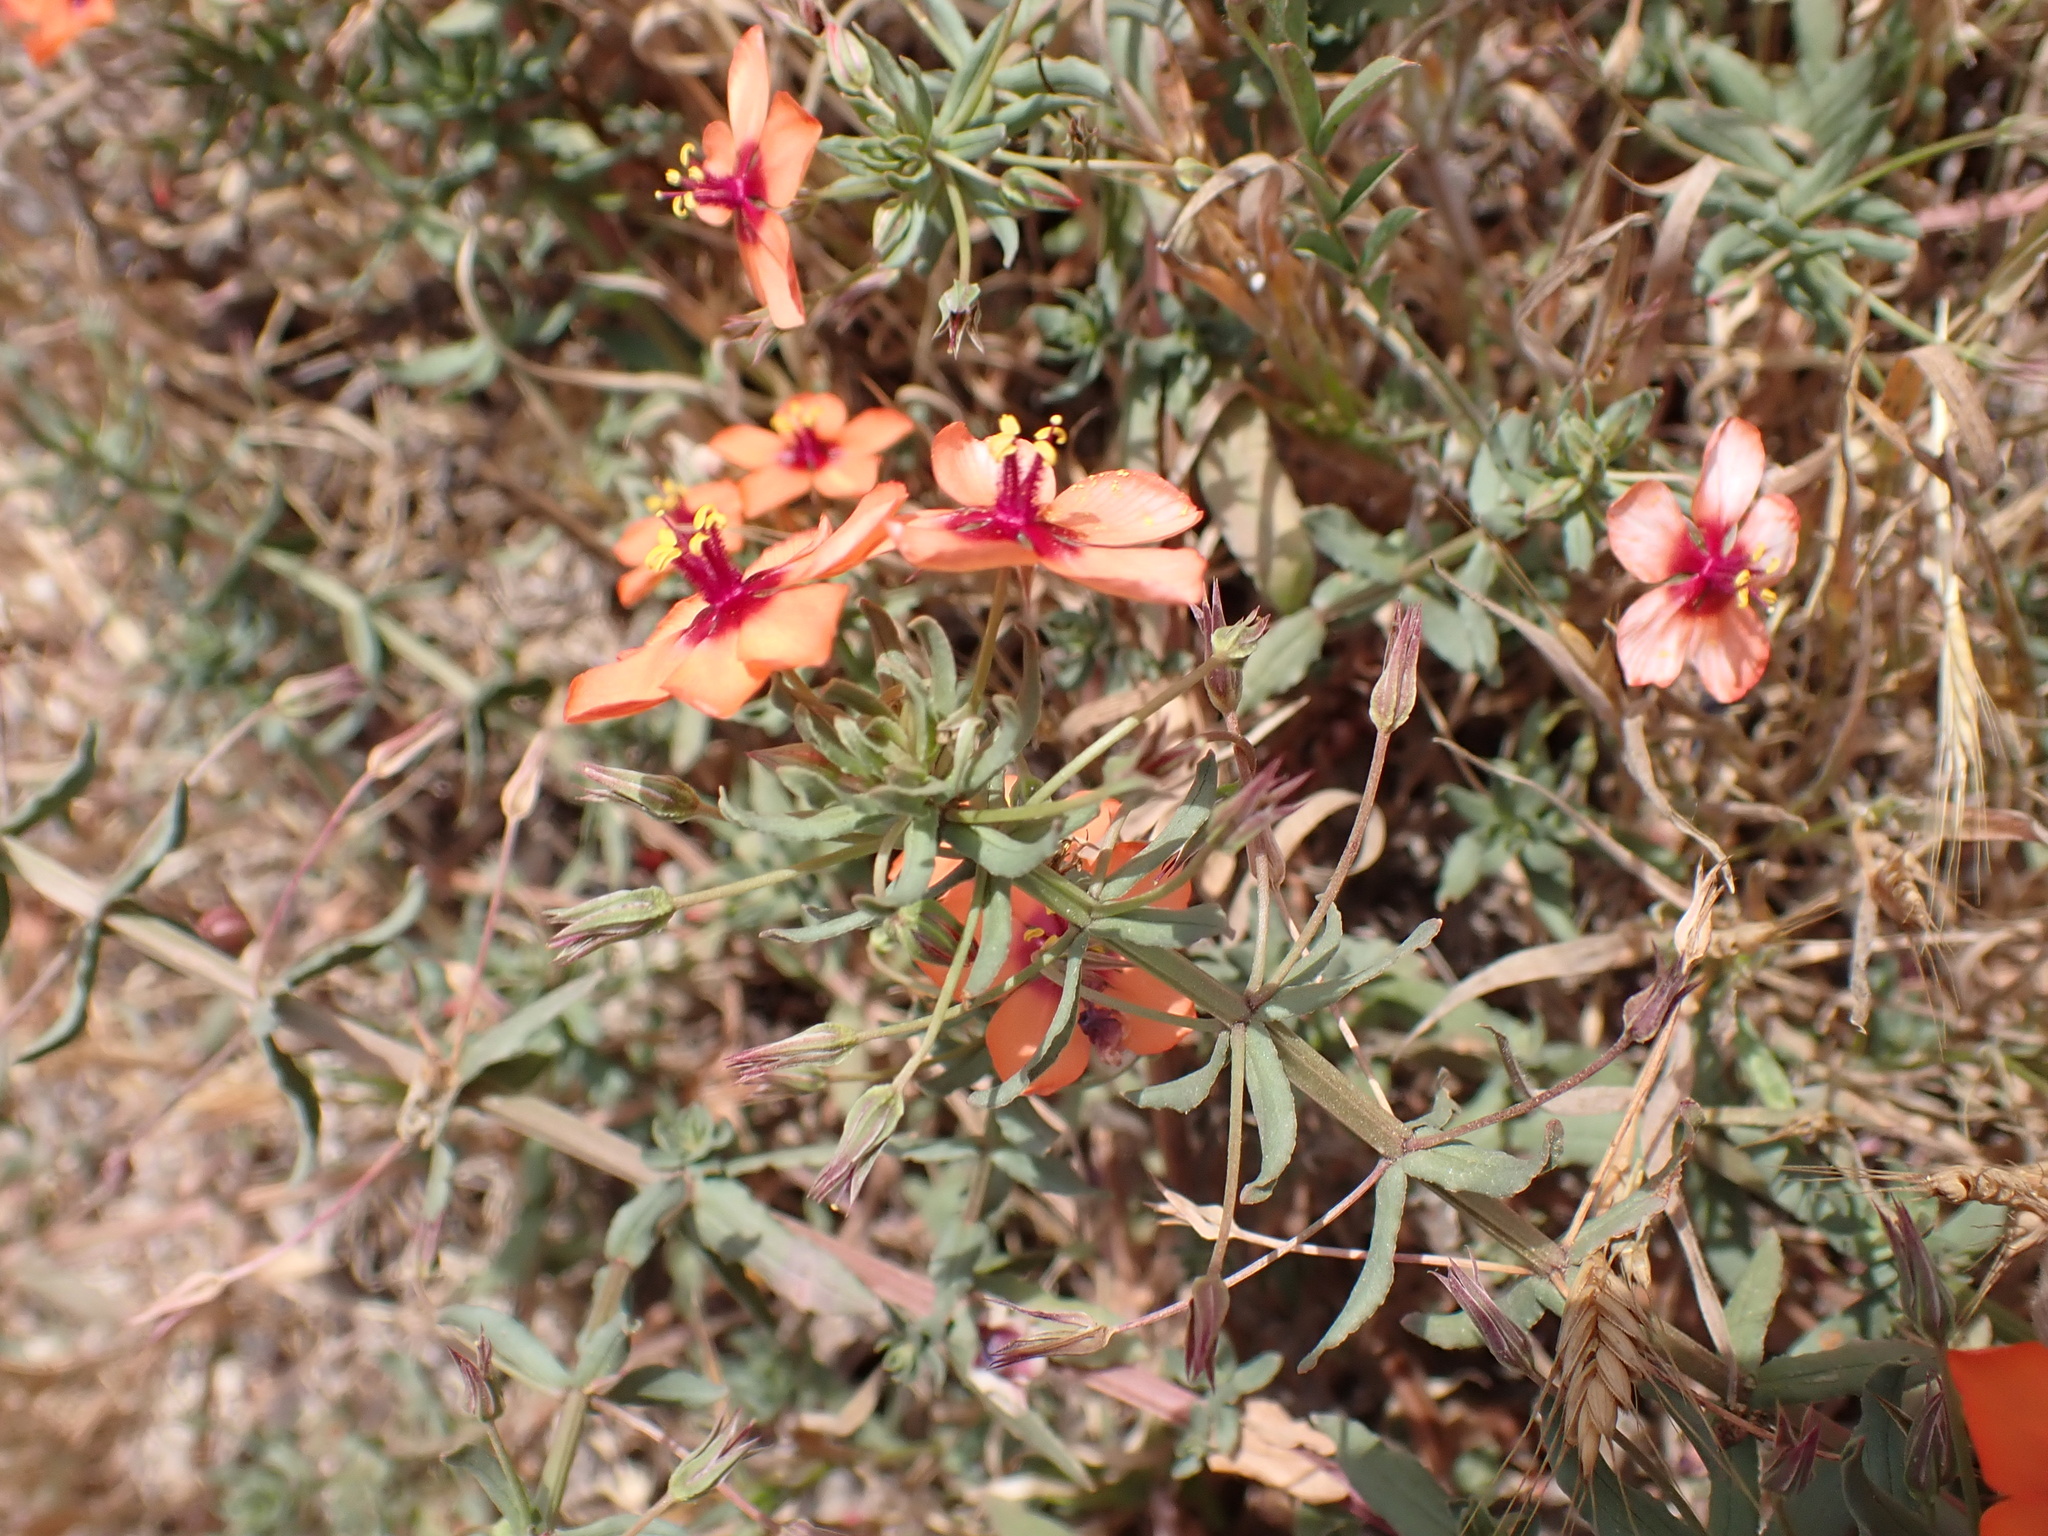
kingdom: Plantae
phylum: Tracheophyta
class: Magnoliopsida
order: Ericales
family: Primulaceae
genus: Lysimachia
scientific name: Lysimachia collina
